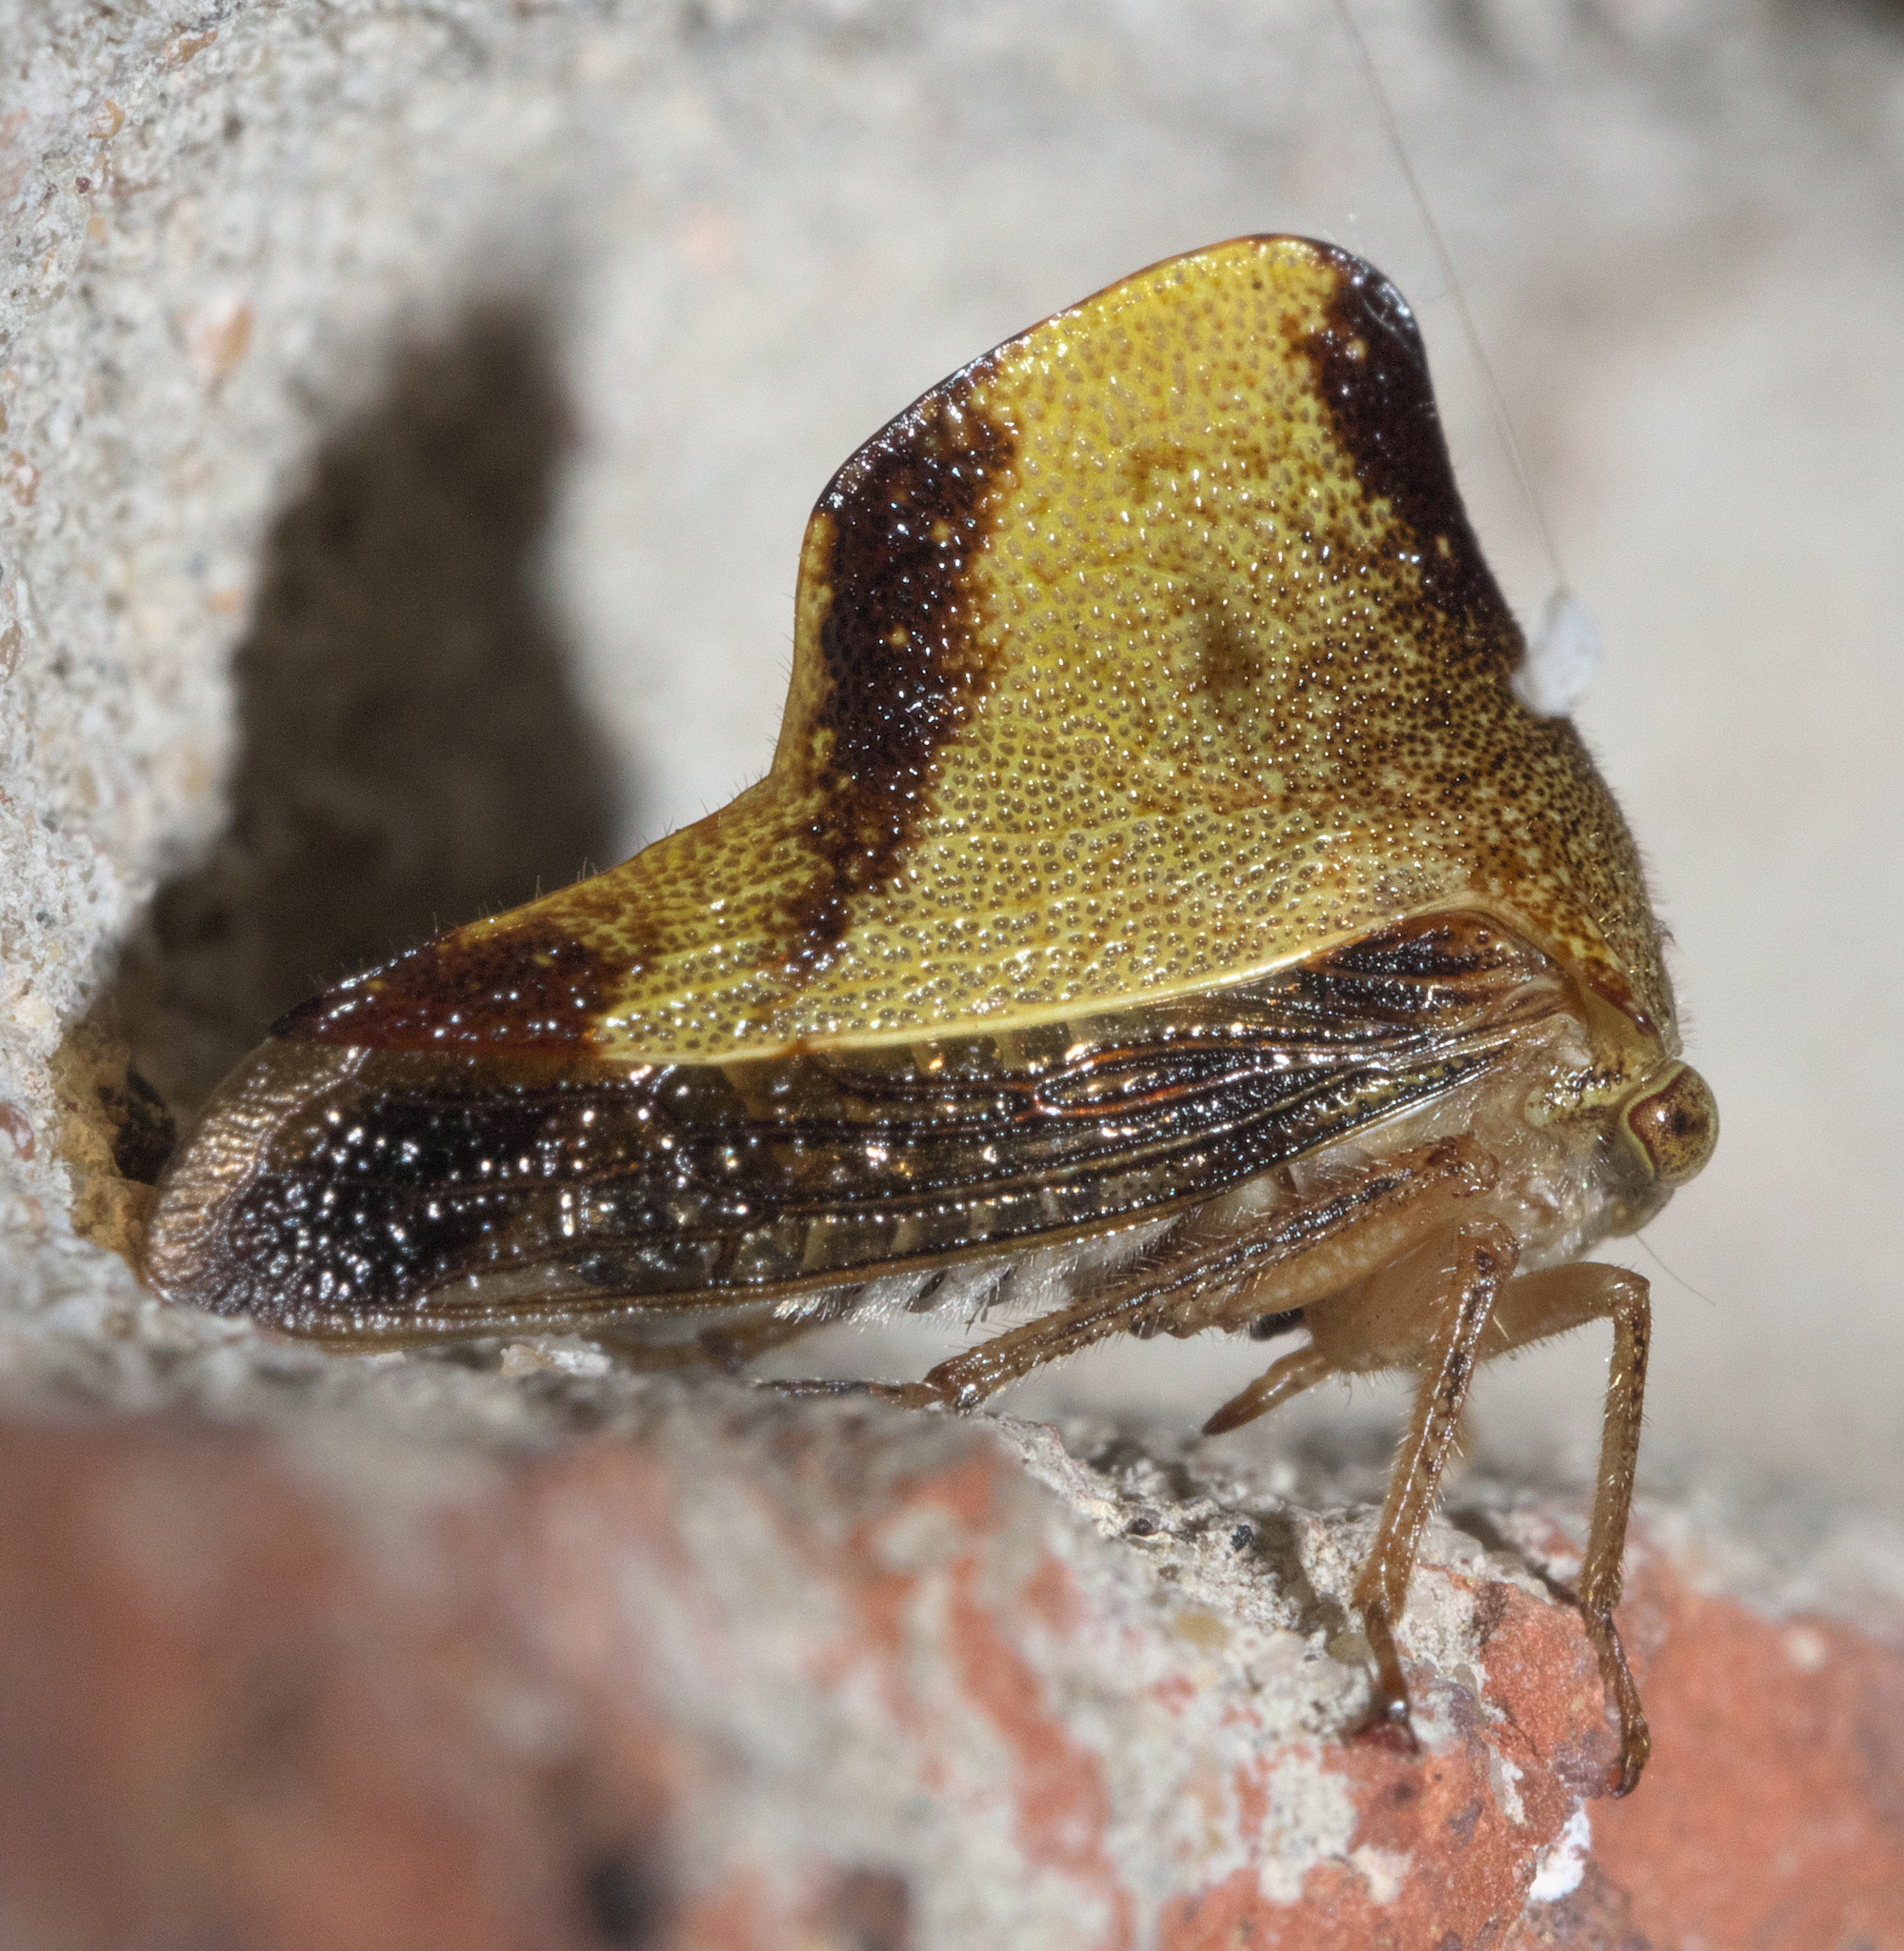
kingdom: Animalia
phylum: Arthropoda
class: Insecta
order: Hemiptera
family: Membracidae
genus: Helonica
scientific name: Helonica excelsa
